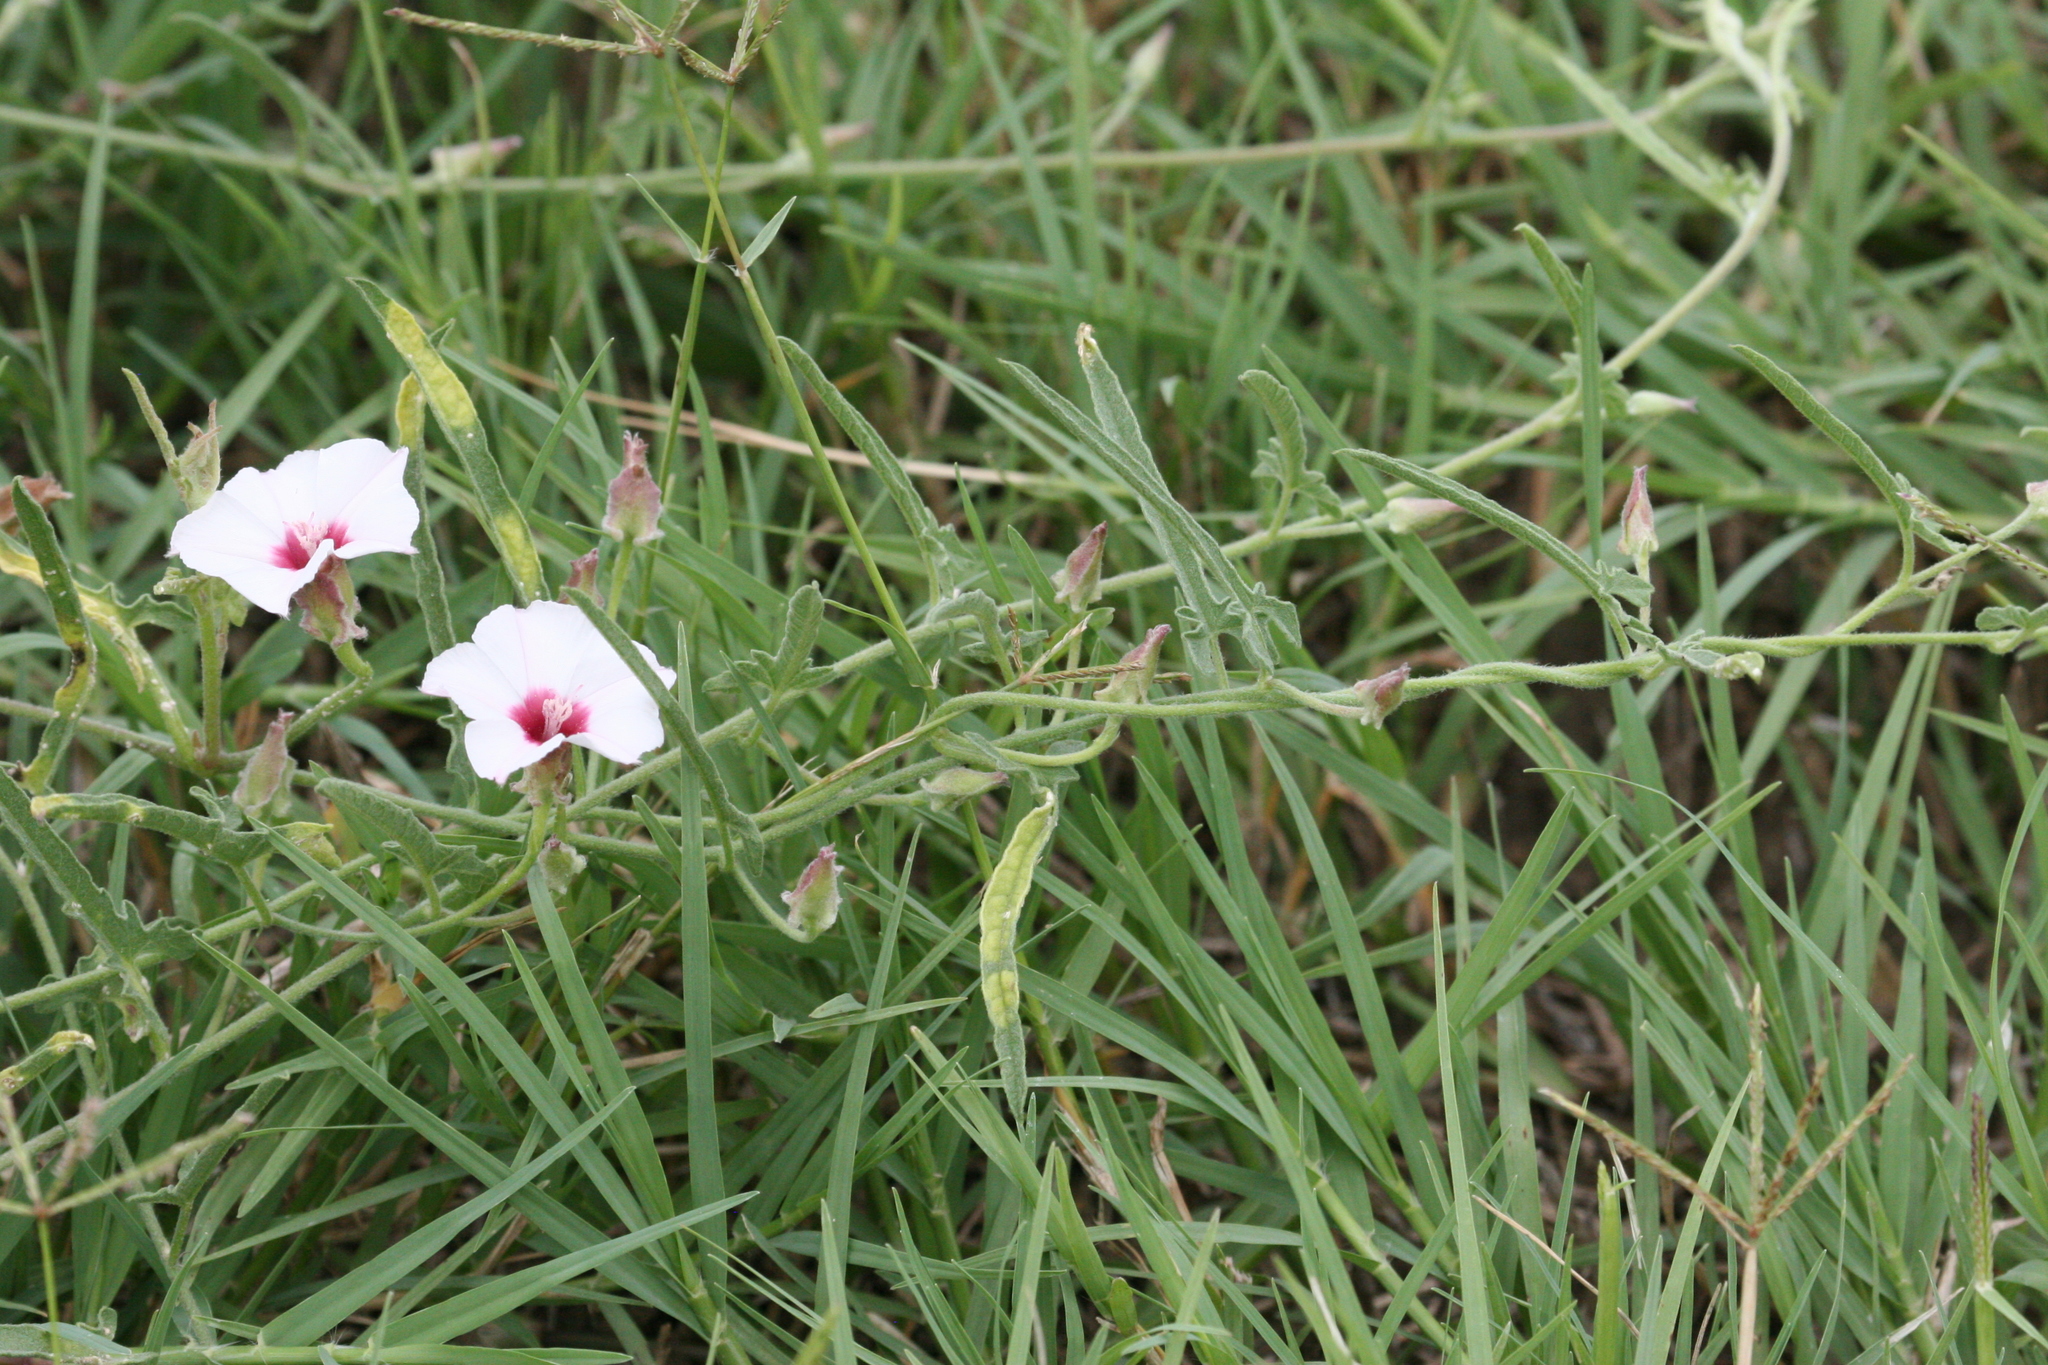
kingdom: Plantae
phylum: Tracheophyta
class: Magnoliopsida
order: Solanales
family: Convolvulaceae
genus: Convolvulus
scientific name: Convolvulus equitans
